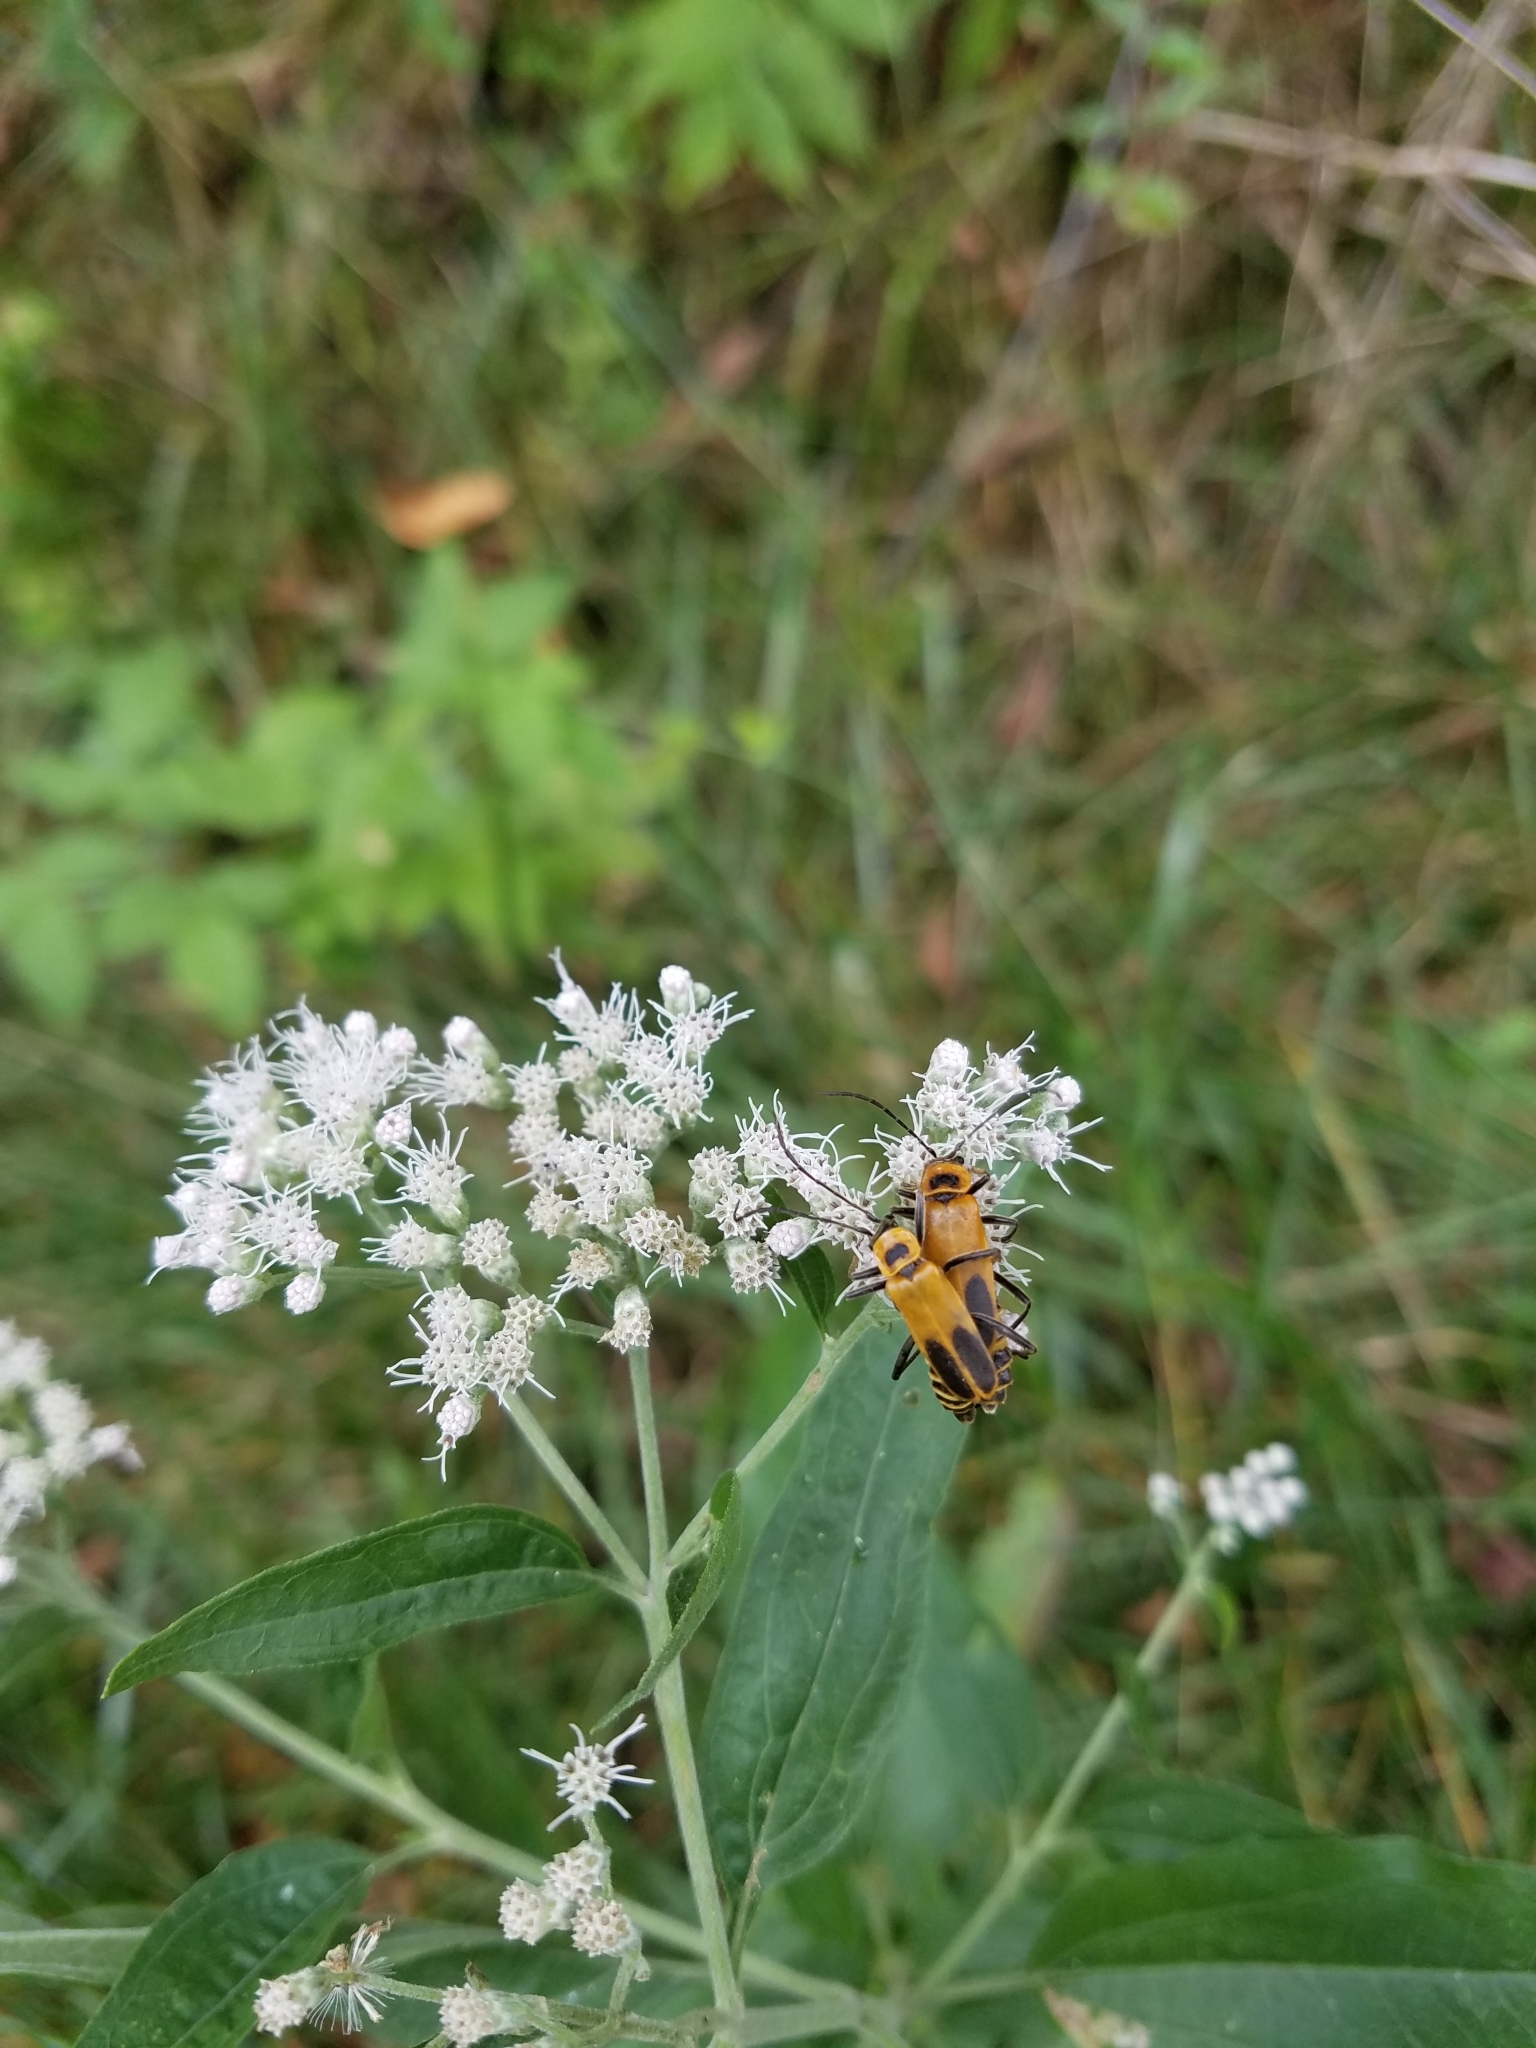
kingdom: Animalia
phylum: Arthropoda
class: Insecta
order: Coleoptera
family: Cantharidae
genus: Chauliognathus
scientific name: Chauliognathus pensylvanicus
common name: Goldenrod soldier beetle
